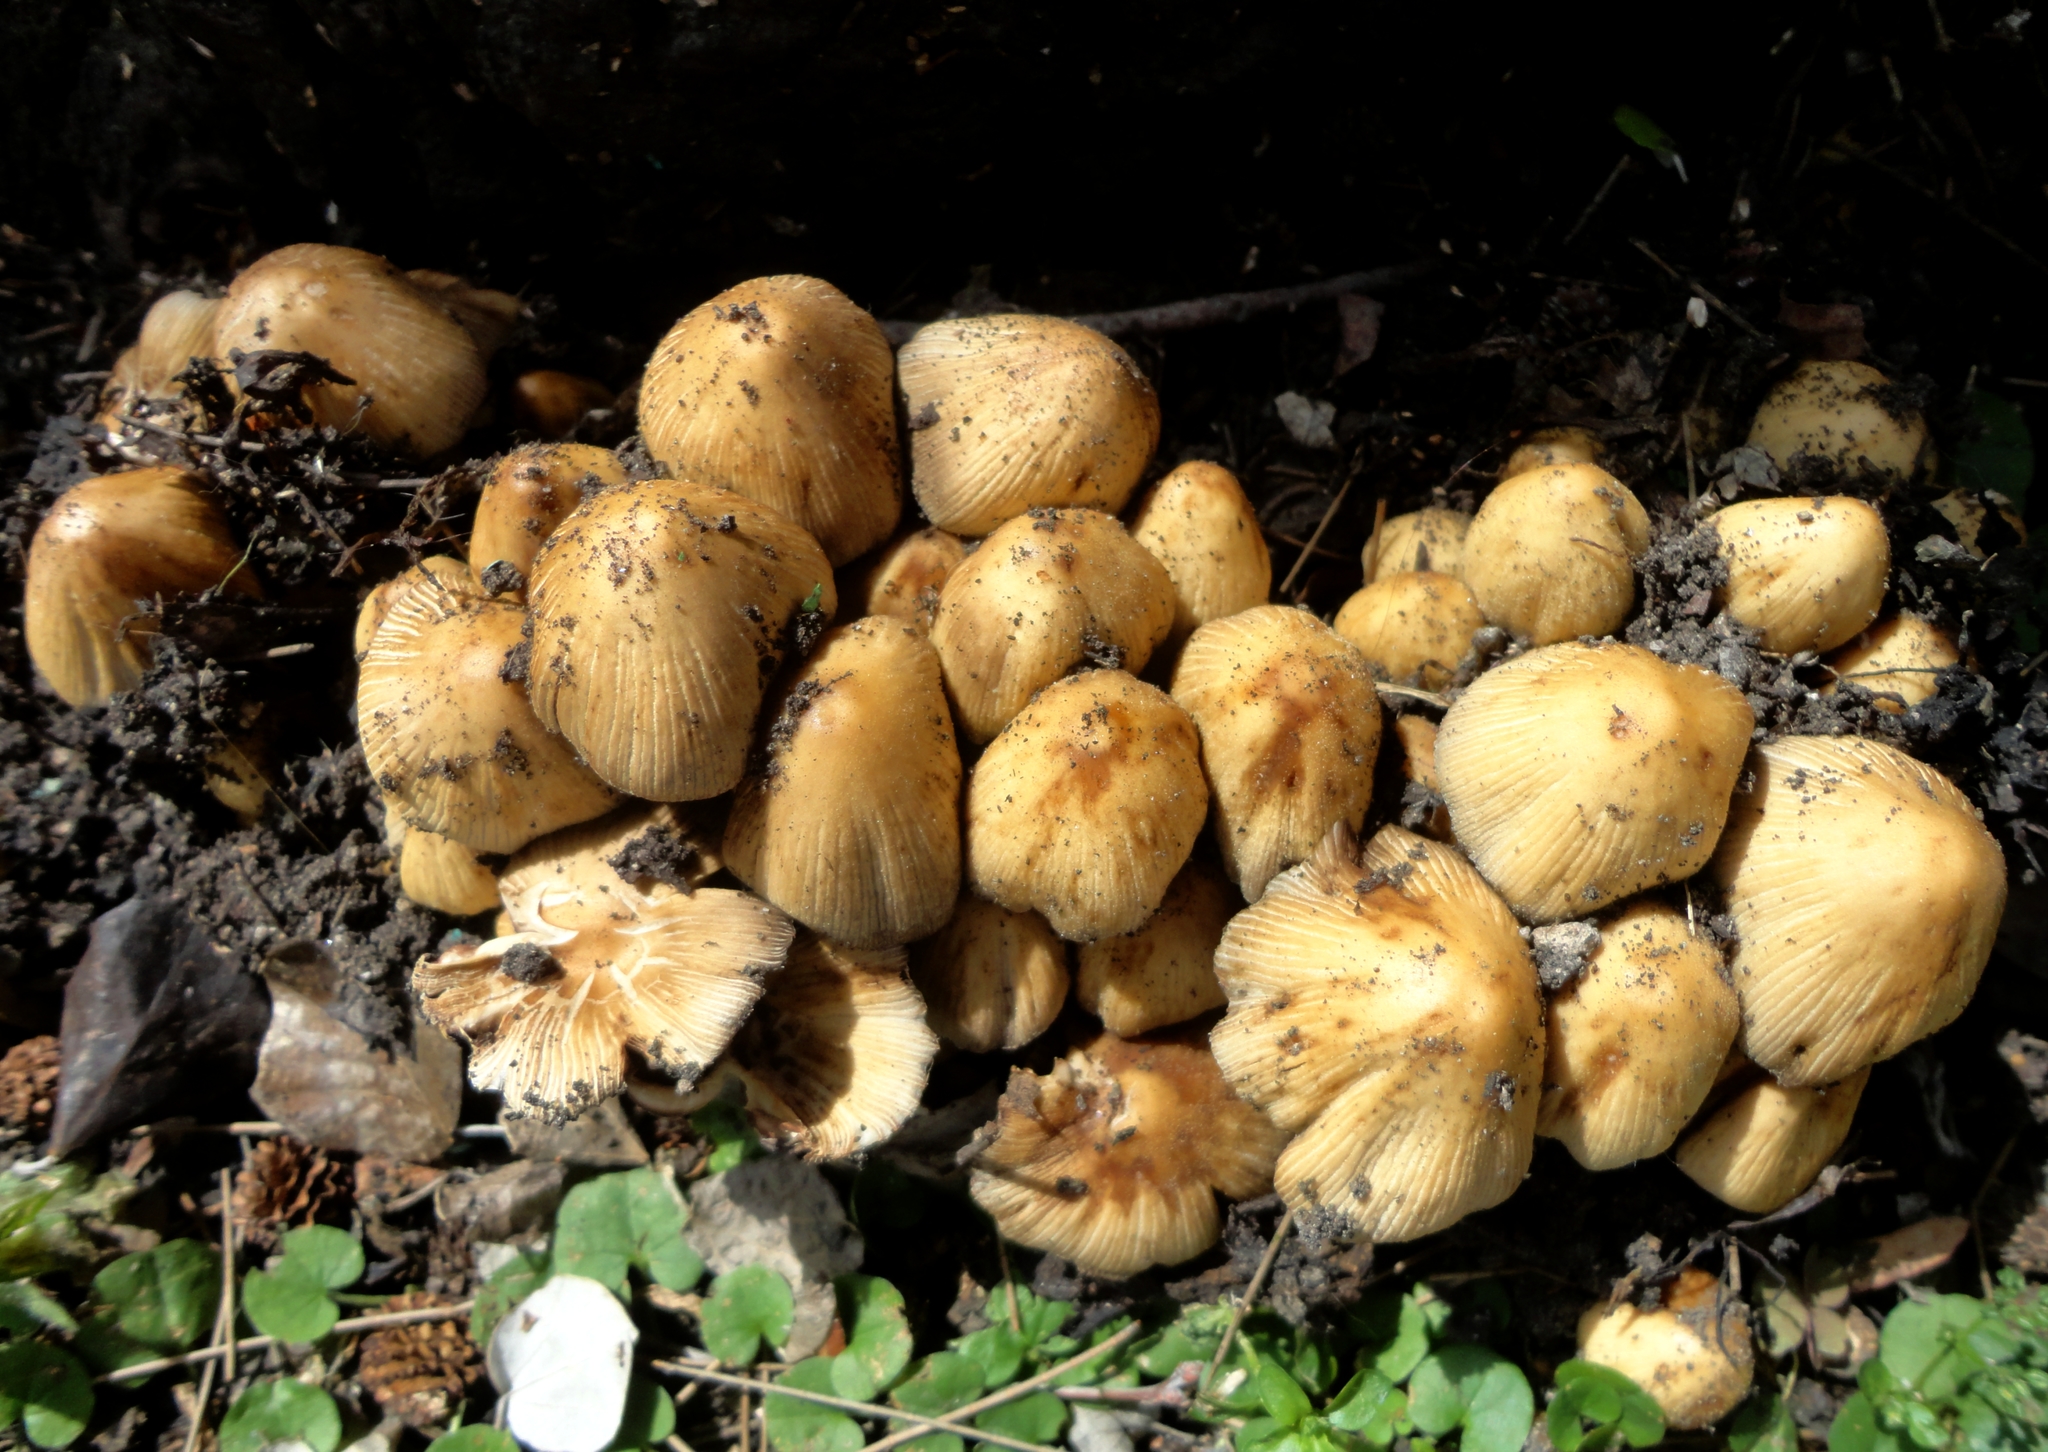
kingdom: Fungi
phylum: Basidiomycota
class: Agaricomycetes
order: Agaricales
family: Psathyrellaceae
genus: Coprinellus
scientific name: Coprinellus micaceus
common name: Glistening ink-cap
